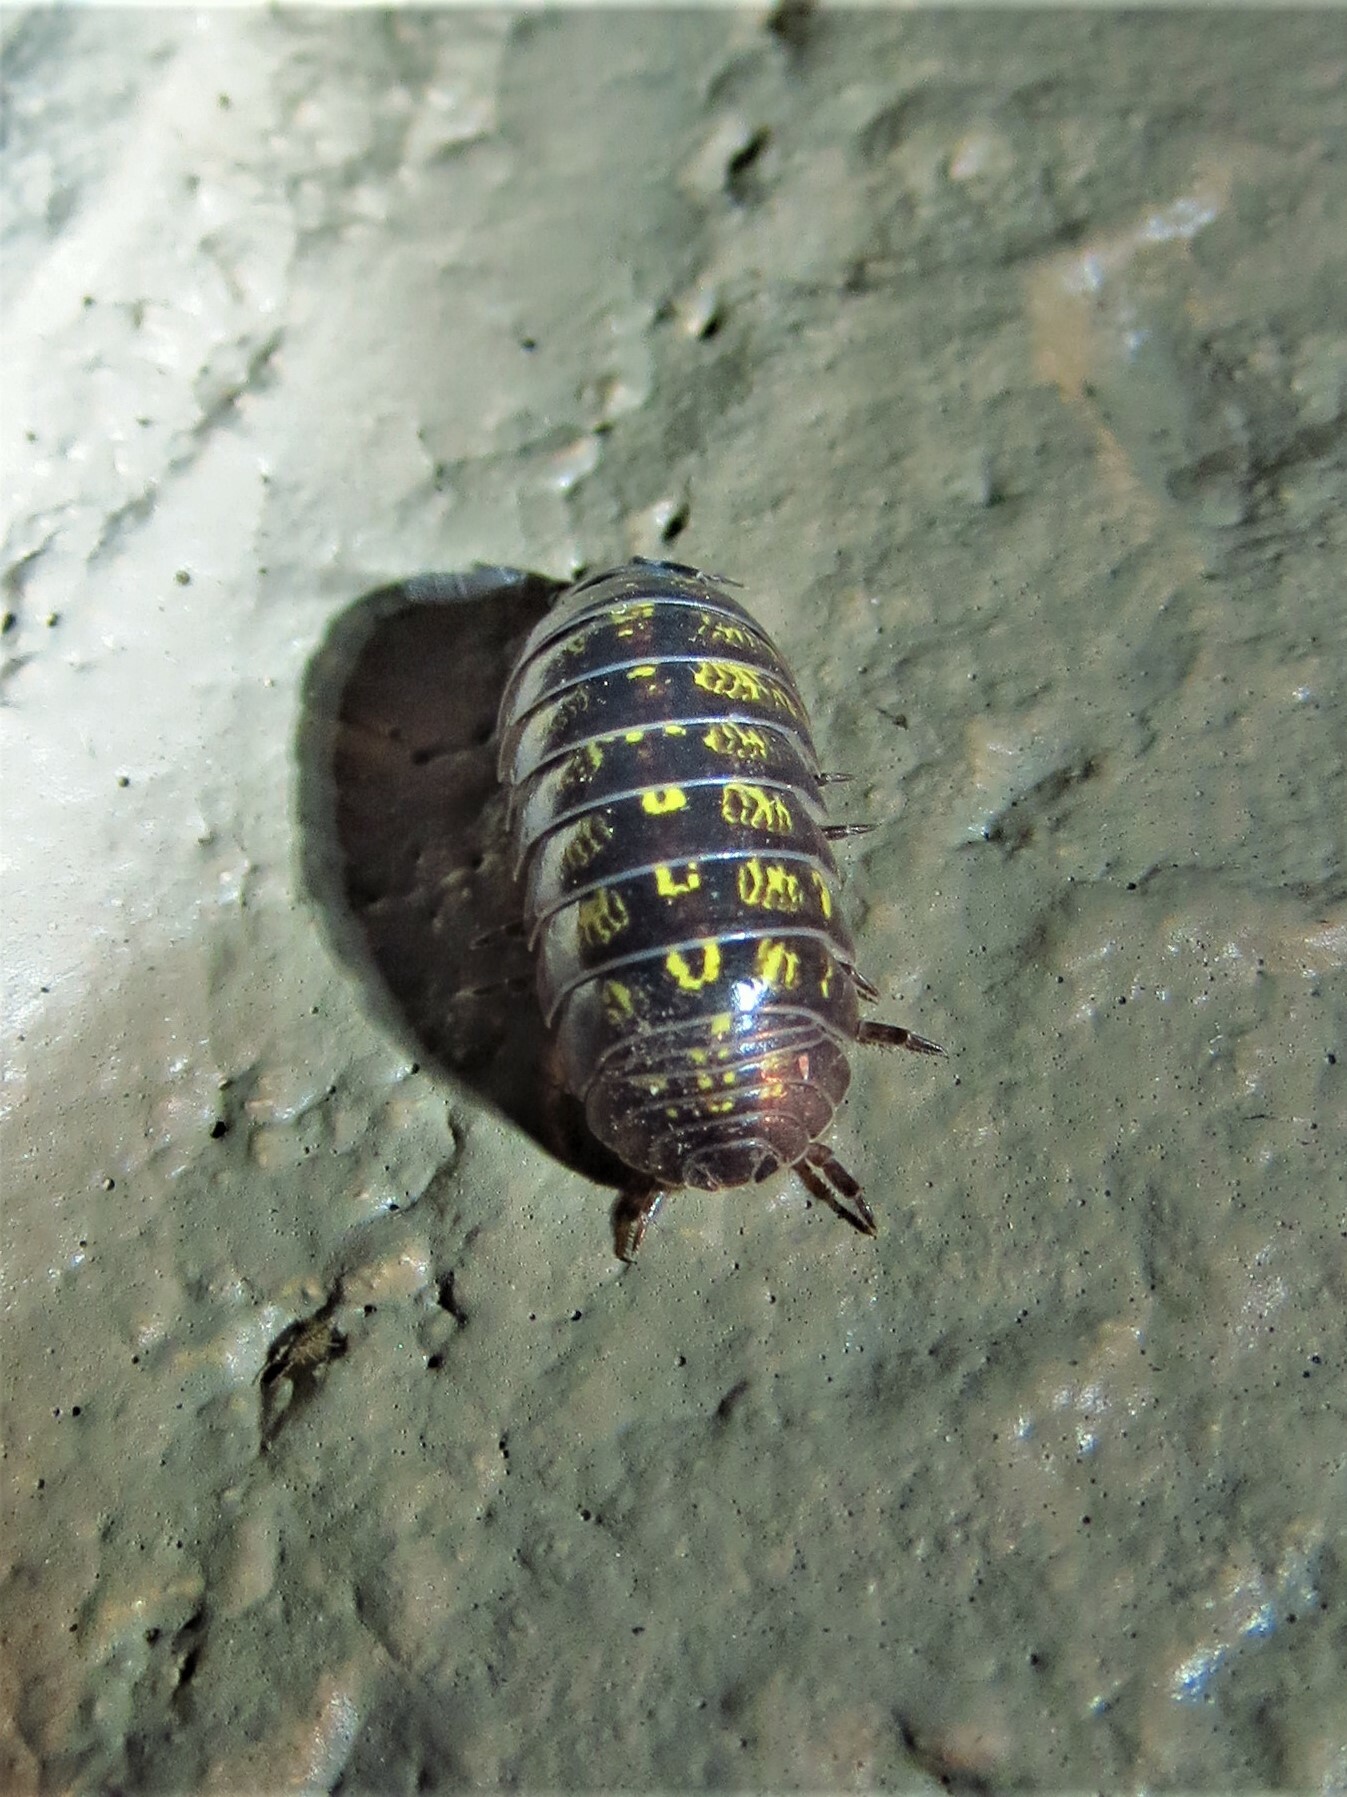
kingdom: Animalia
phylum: Arthropoda
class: Malacostraca
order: Isopoda
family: Armadillidiidae
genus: Armadillidium
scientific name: Armadillidium vulgare
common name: Common pill woodlouse
